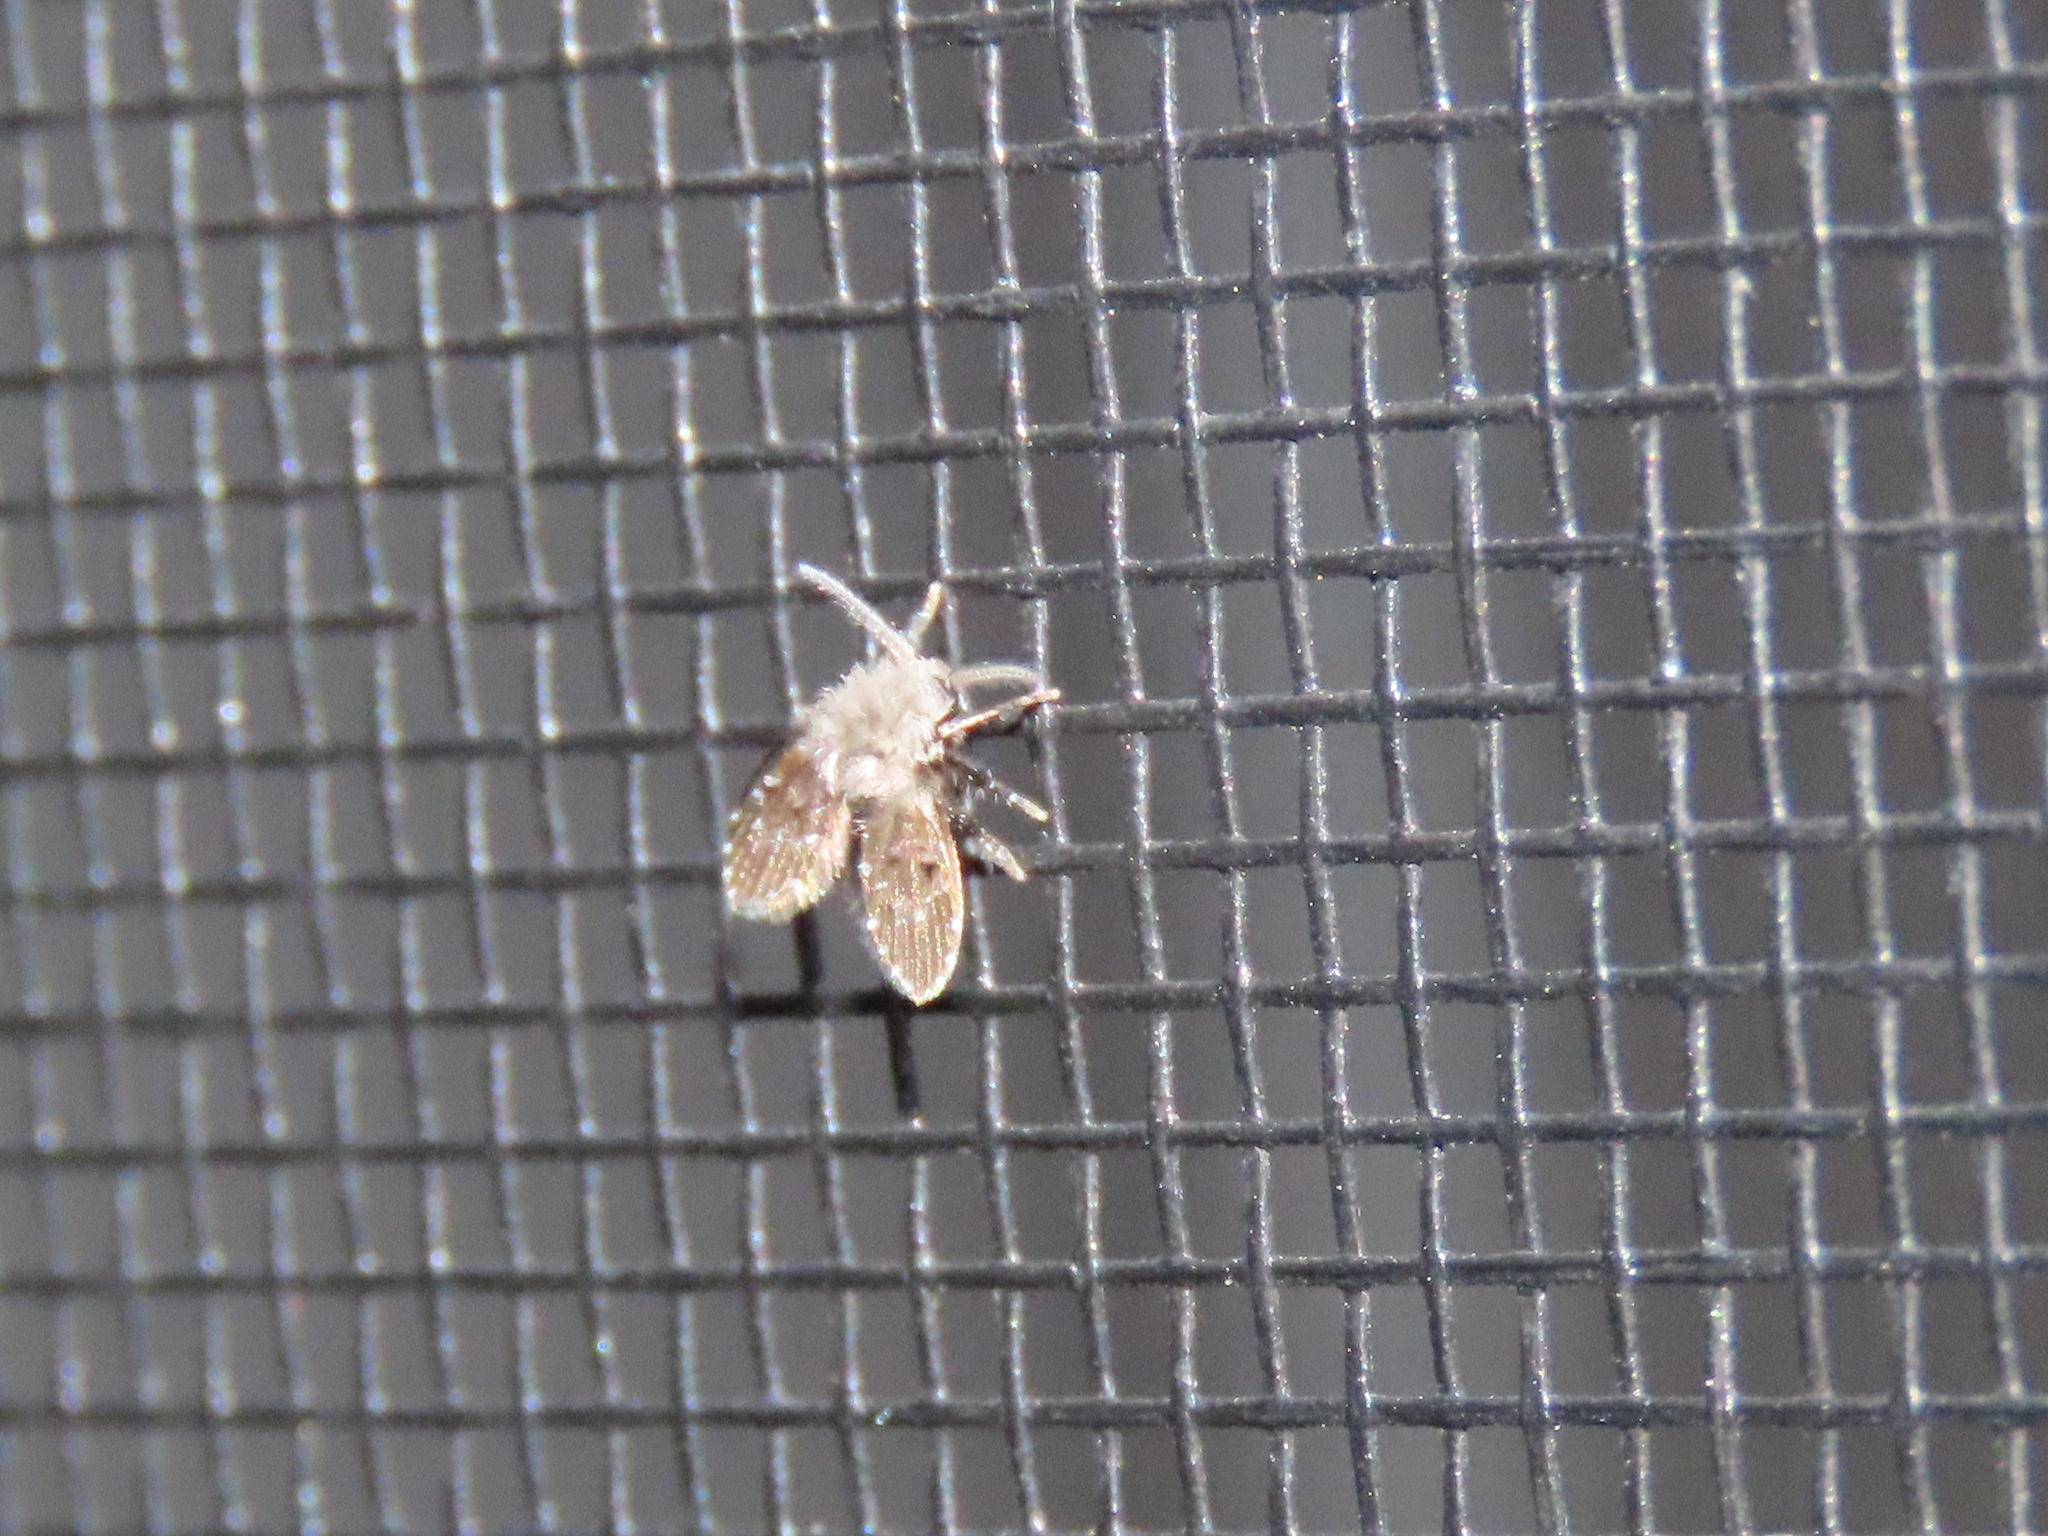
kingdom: Animalia
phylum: Arthropoda
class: Insecta
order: Diptera
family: Psychodidae
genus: Clogmia
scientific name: Clogmia albipunctatus
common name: White-spotted moth fly
